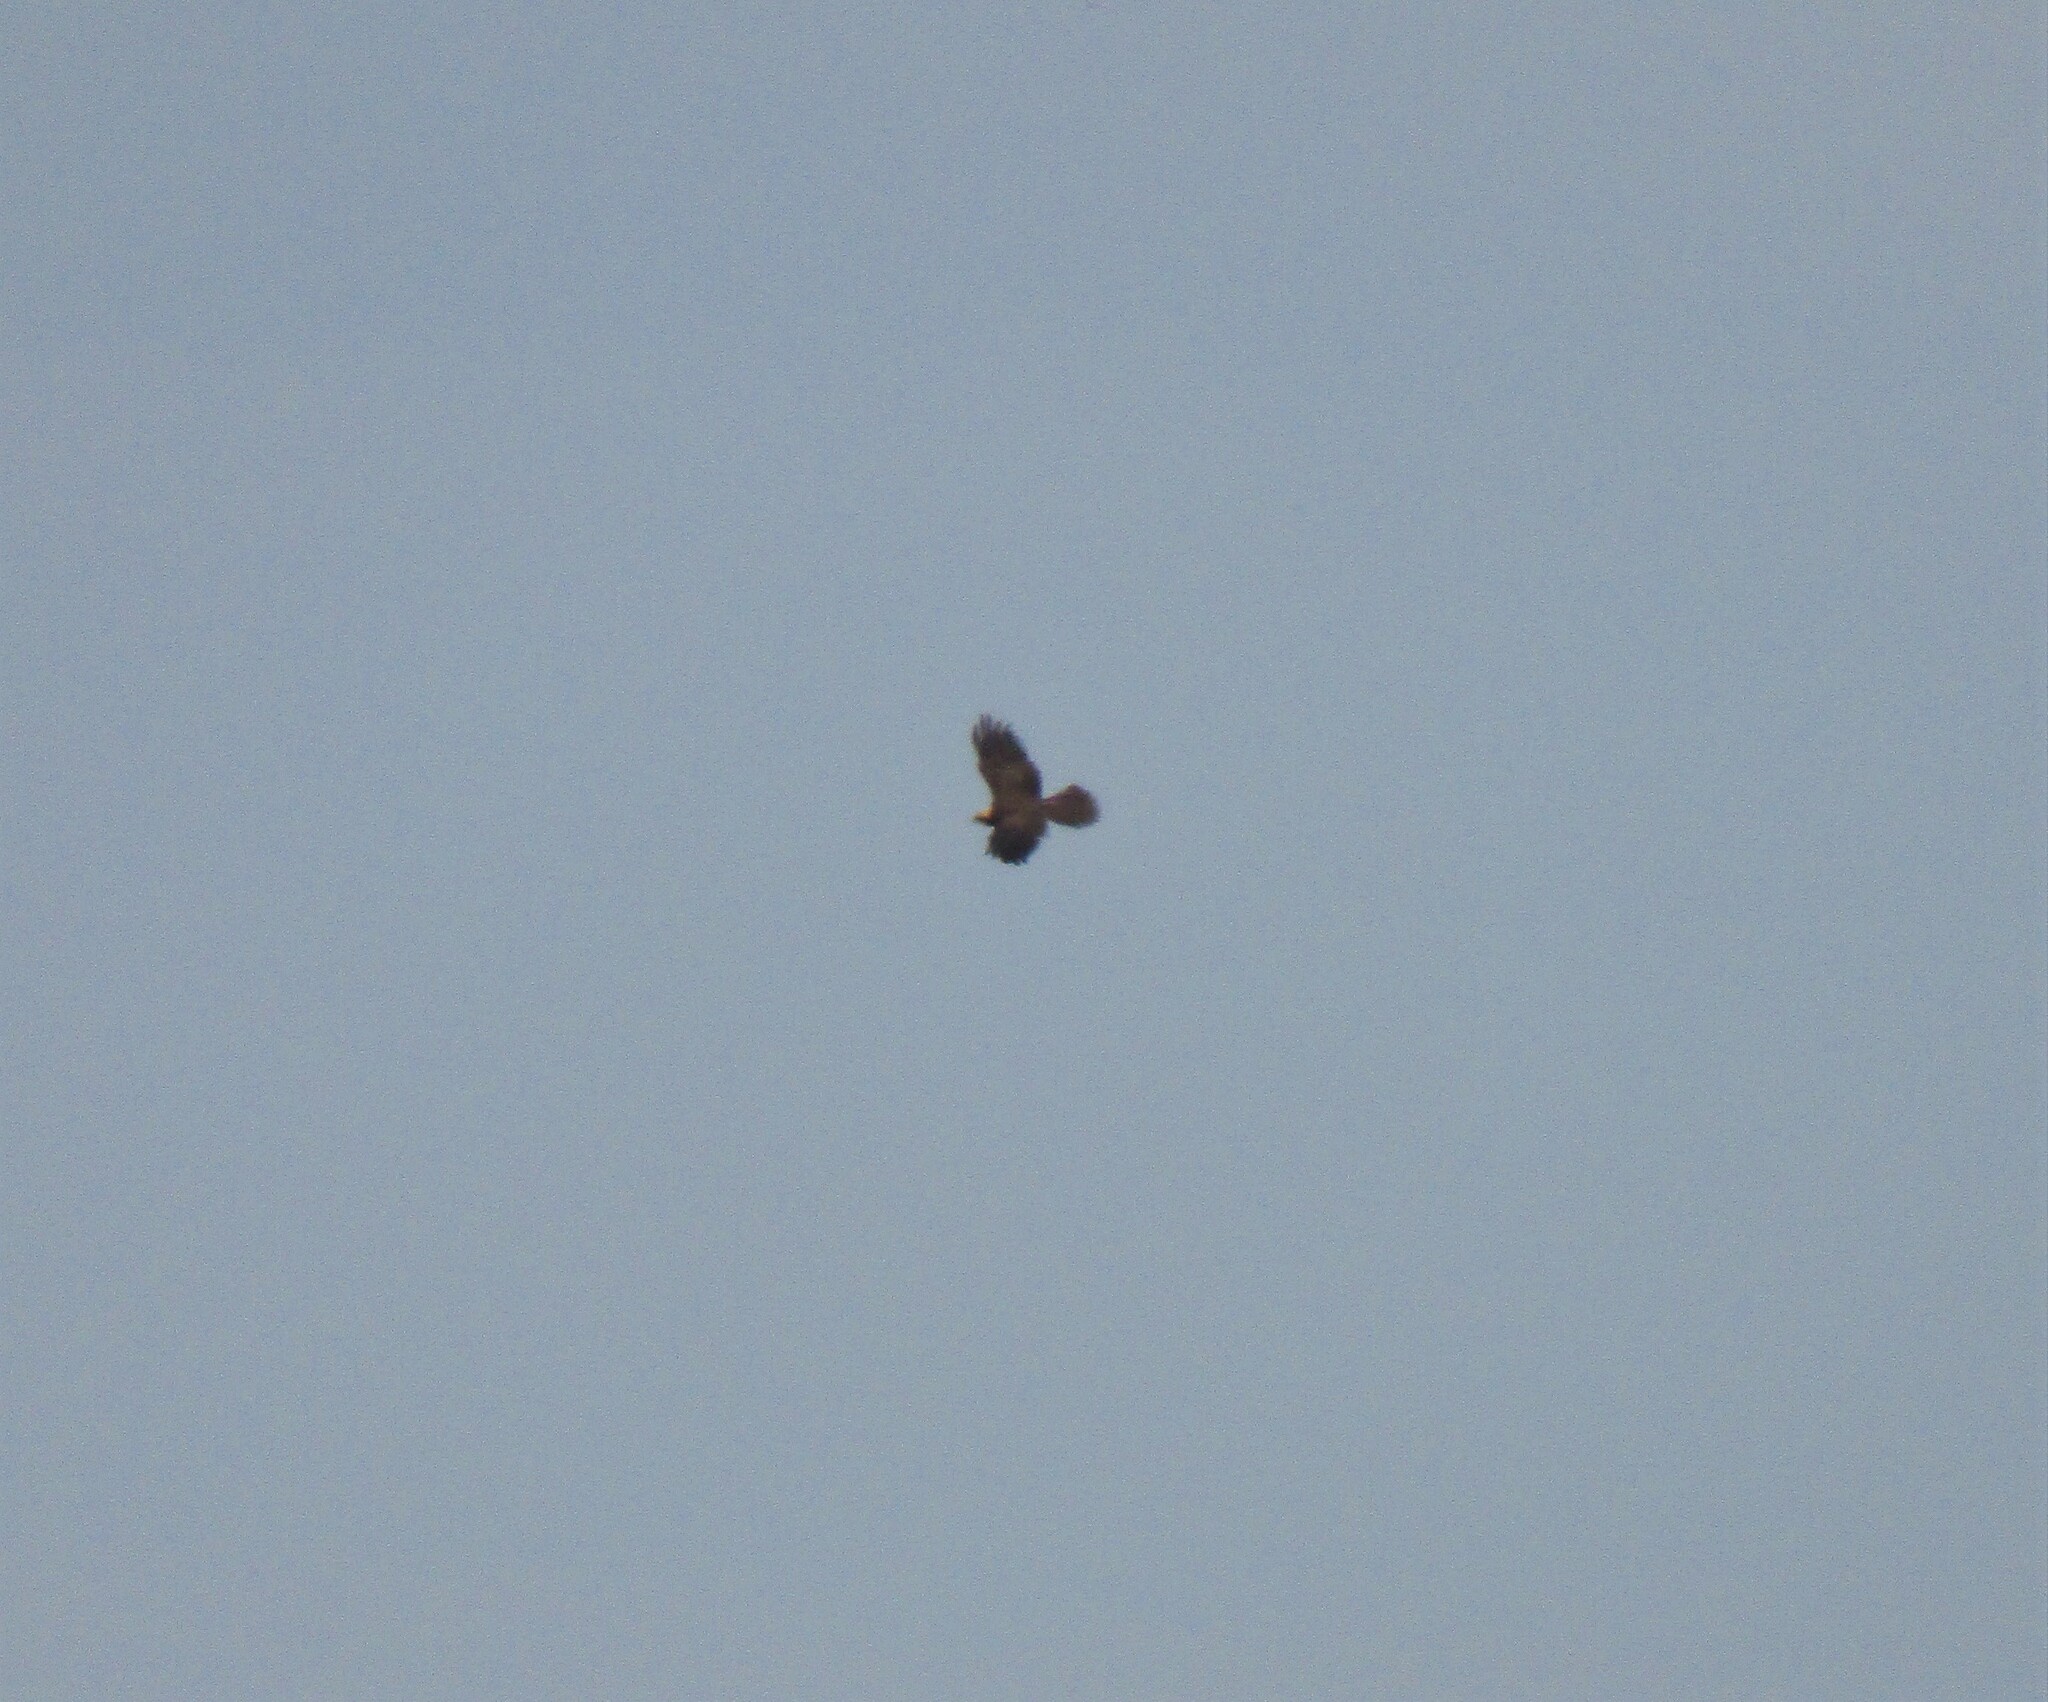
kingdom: Animalia
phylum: Chordata
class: Aves
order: Accipitriformes
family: Accipitridae
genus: Circus
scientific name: Circus aeruginosus
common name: Western marsh harrier
